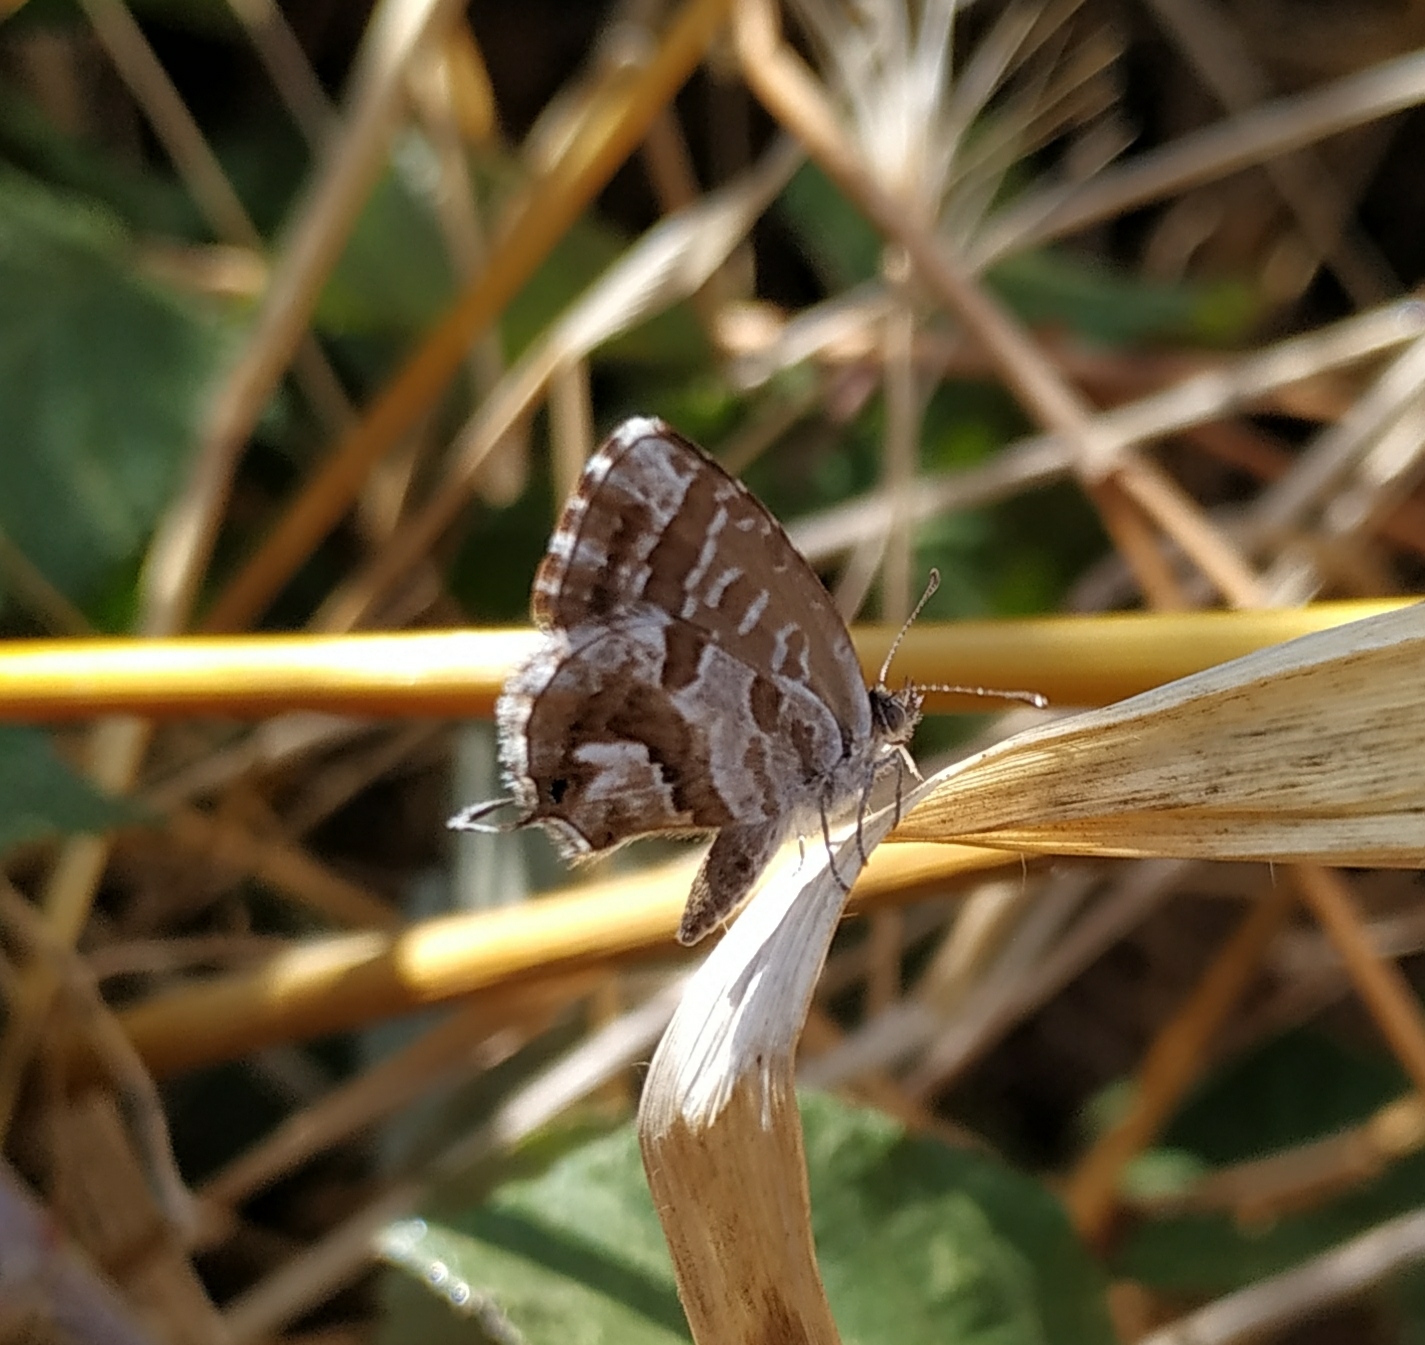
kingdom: Animalia
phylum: Arthropoda
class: Insecta
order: Lepidoptera
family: Lycaenidae
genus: Cacyreus
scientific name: Cacyreus marshalli
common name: Geranium bronze
